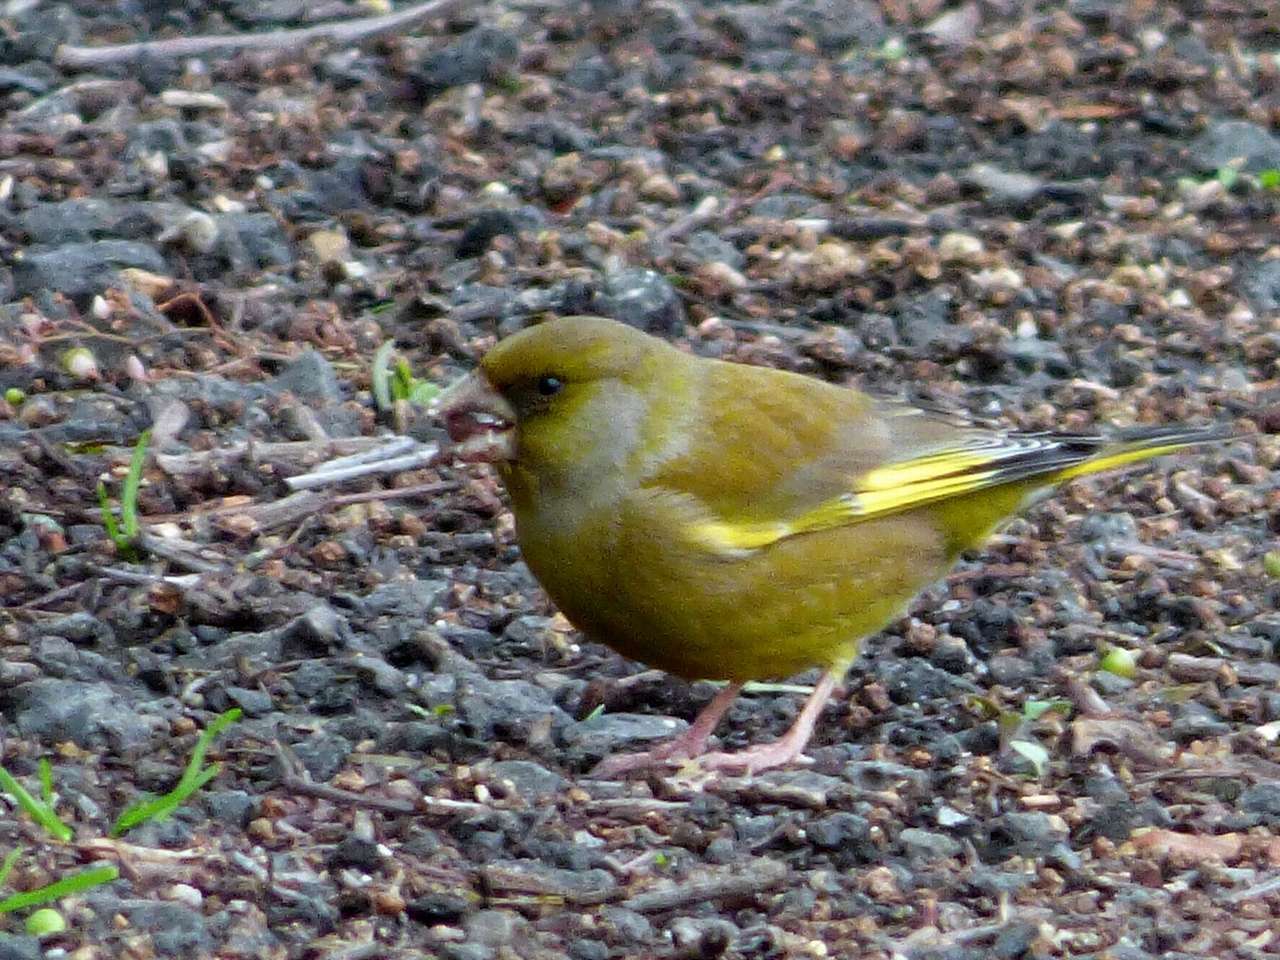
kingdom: Plantae
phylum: Tracheophyta
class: Liliopsida
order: Poales
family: Poaceae
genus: Chloris
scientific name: Chloris chloris
